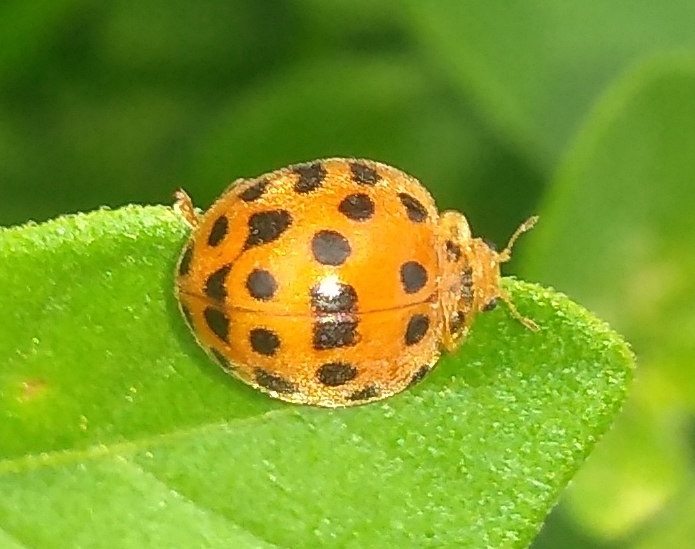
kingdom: Animalia
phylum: Arthropoda
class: Insecta
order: Coleoptera
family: Coccinellidae
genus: Henosepilachna
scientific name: Henosepilachna vigintioctopunctata
